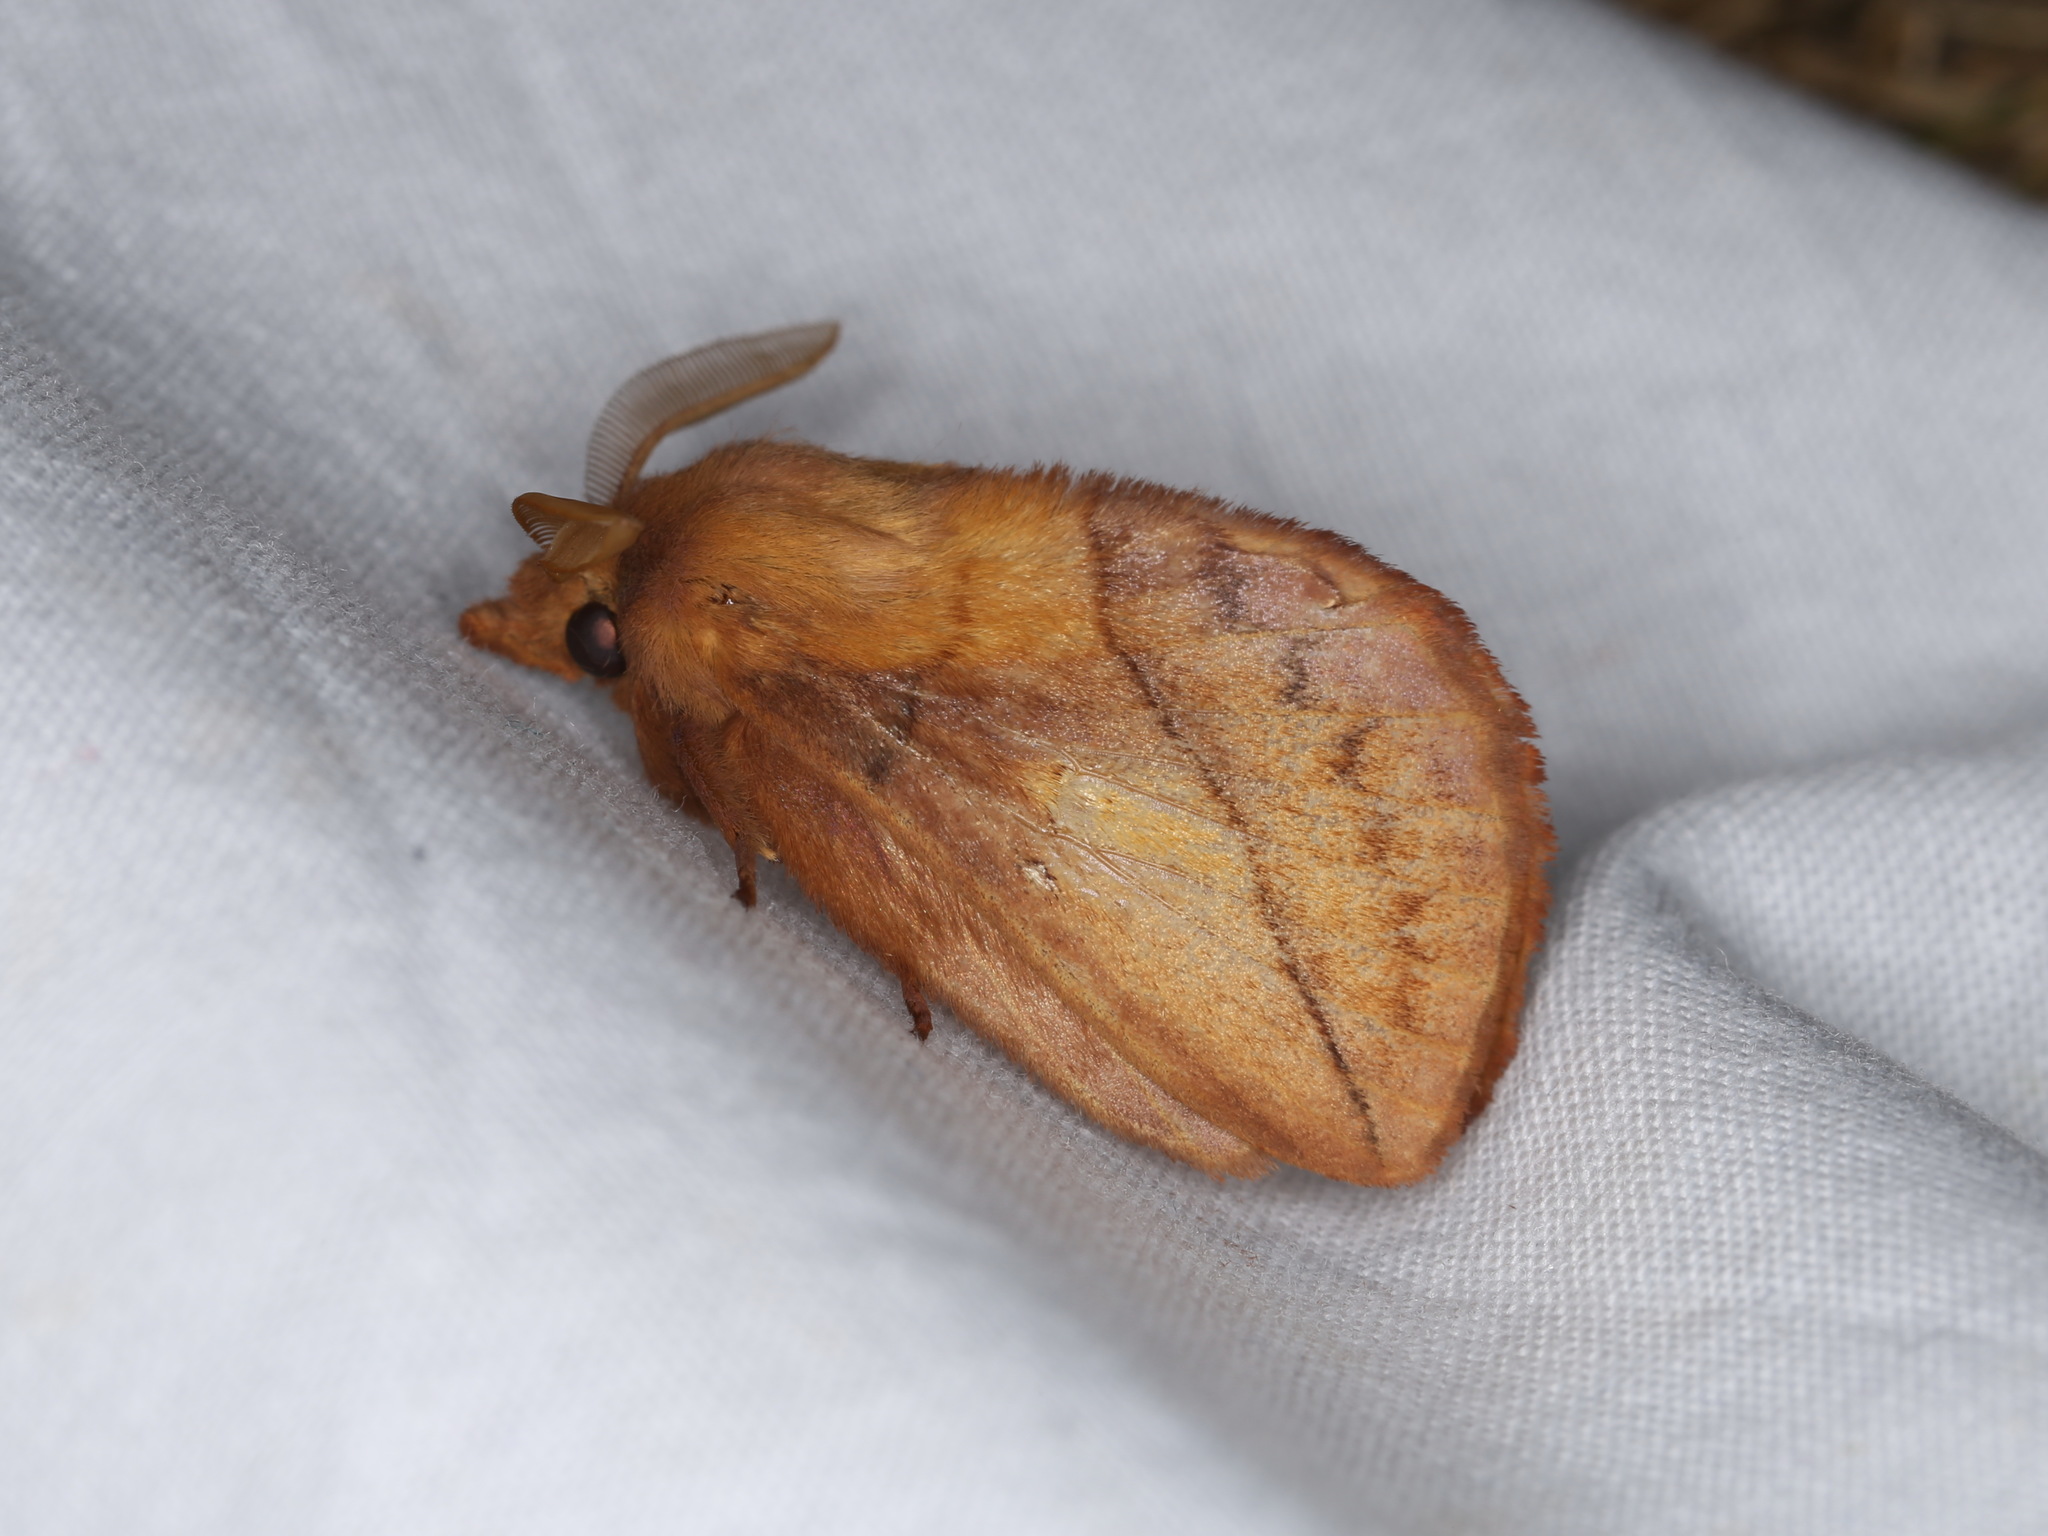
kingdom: Animalia
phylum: Arthropoda
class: Insecta
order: Lepidoptera
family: Lasiocampidae
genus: Euthrix
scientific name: Euthrix potatoria
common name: Drinker
